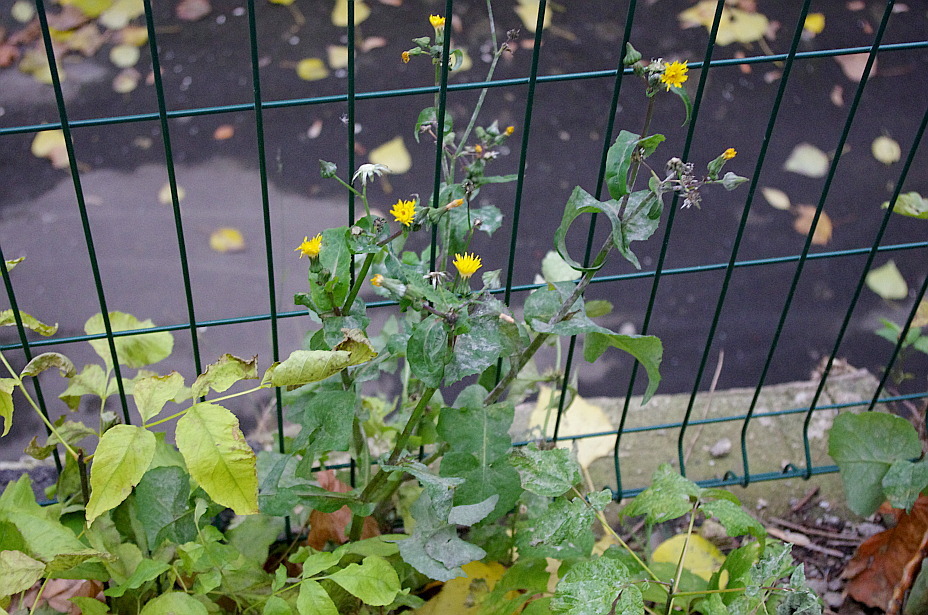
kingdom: Plantae
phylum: Tracheophyta
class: Magnoliopsida
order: Asterales
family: Asteraceae
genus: Sonchus
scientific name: Sonchus oleraceus
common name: Common sowthistle
